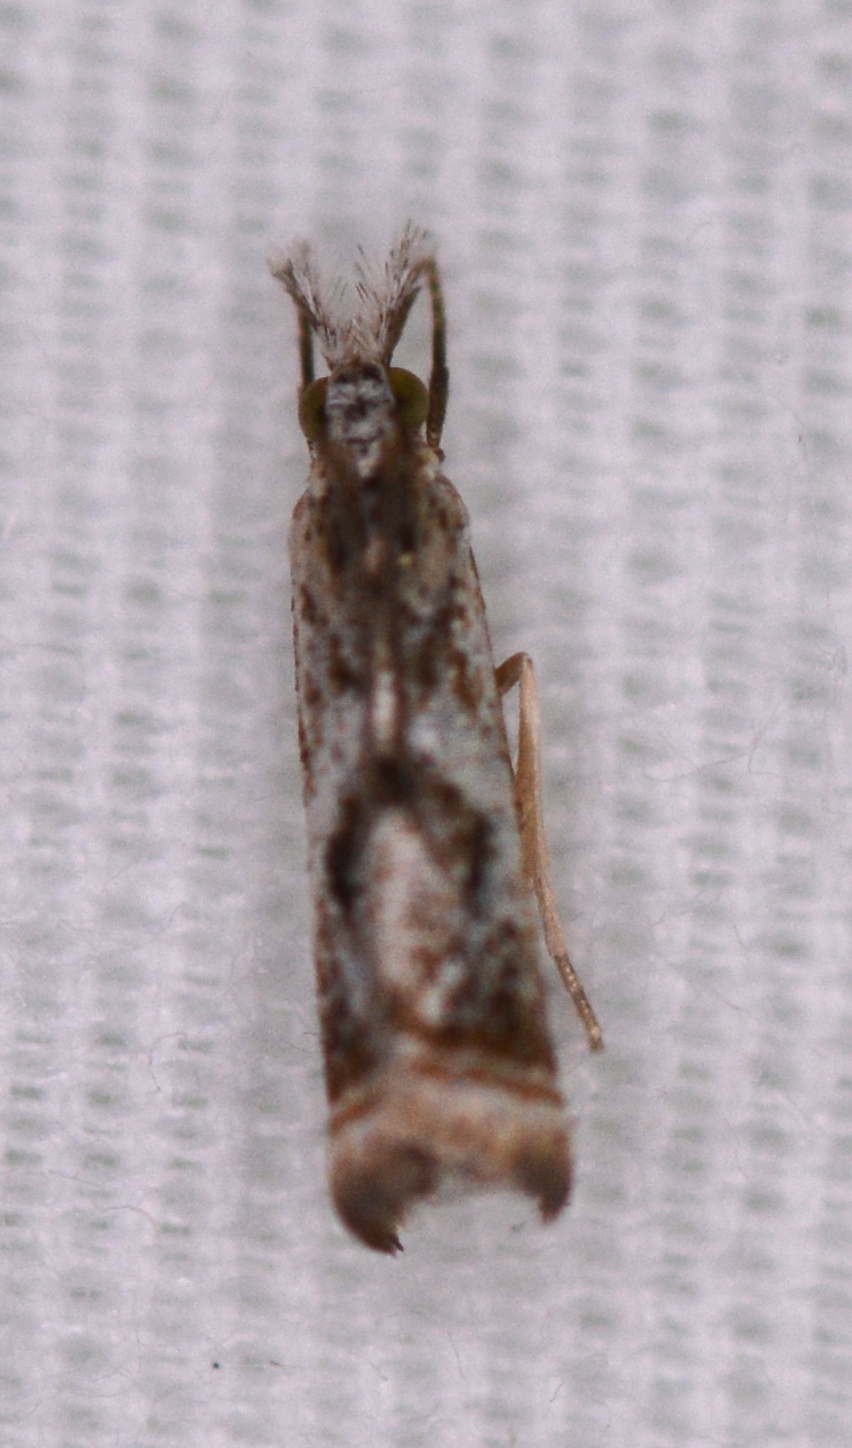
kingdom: Animalia
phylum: Arthropoda
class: Insecta
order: Lepidoptera
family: Crambidae
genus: Microcrambus
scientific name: Microcrambus elegans
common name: Elegant grass-veneer
